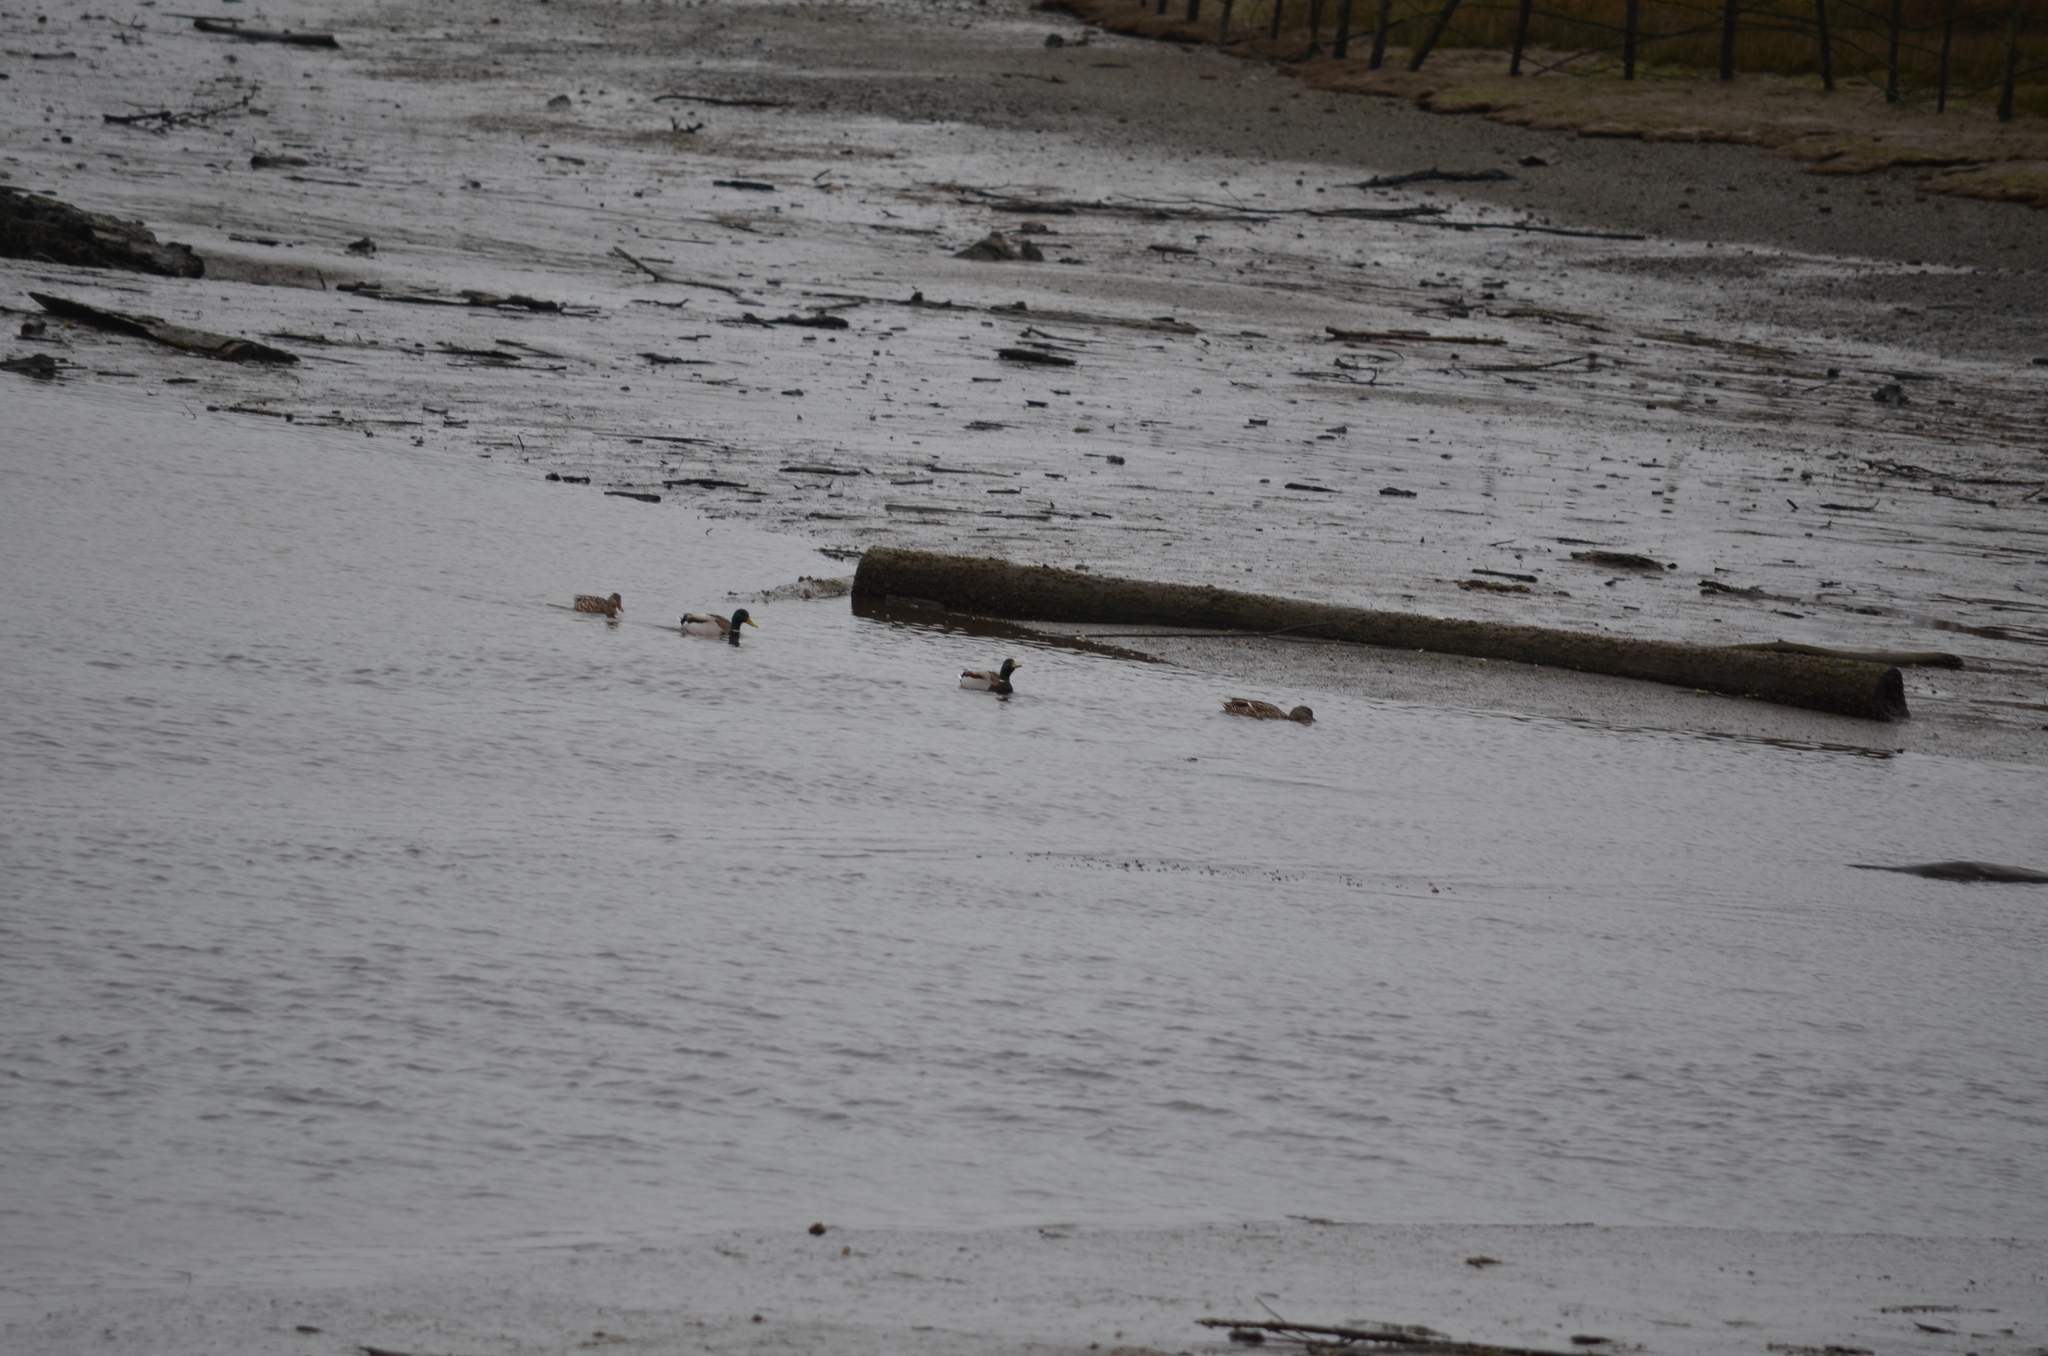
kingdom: Animalia
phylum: Chordata
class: Aves
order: Anseriformes
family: Anatidae
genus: Anas
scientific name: Anas platyrhynchos
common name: Mallard
